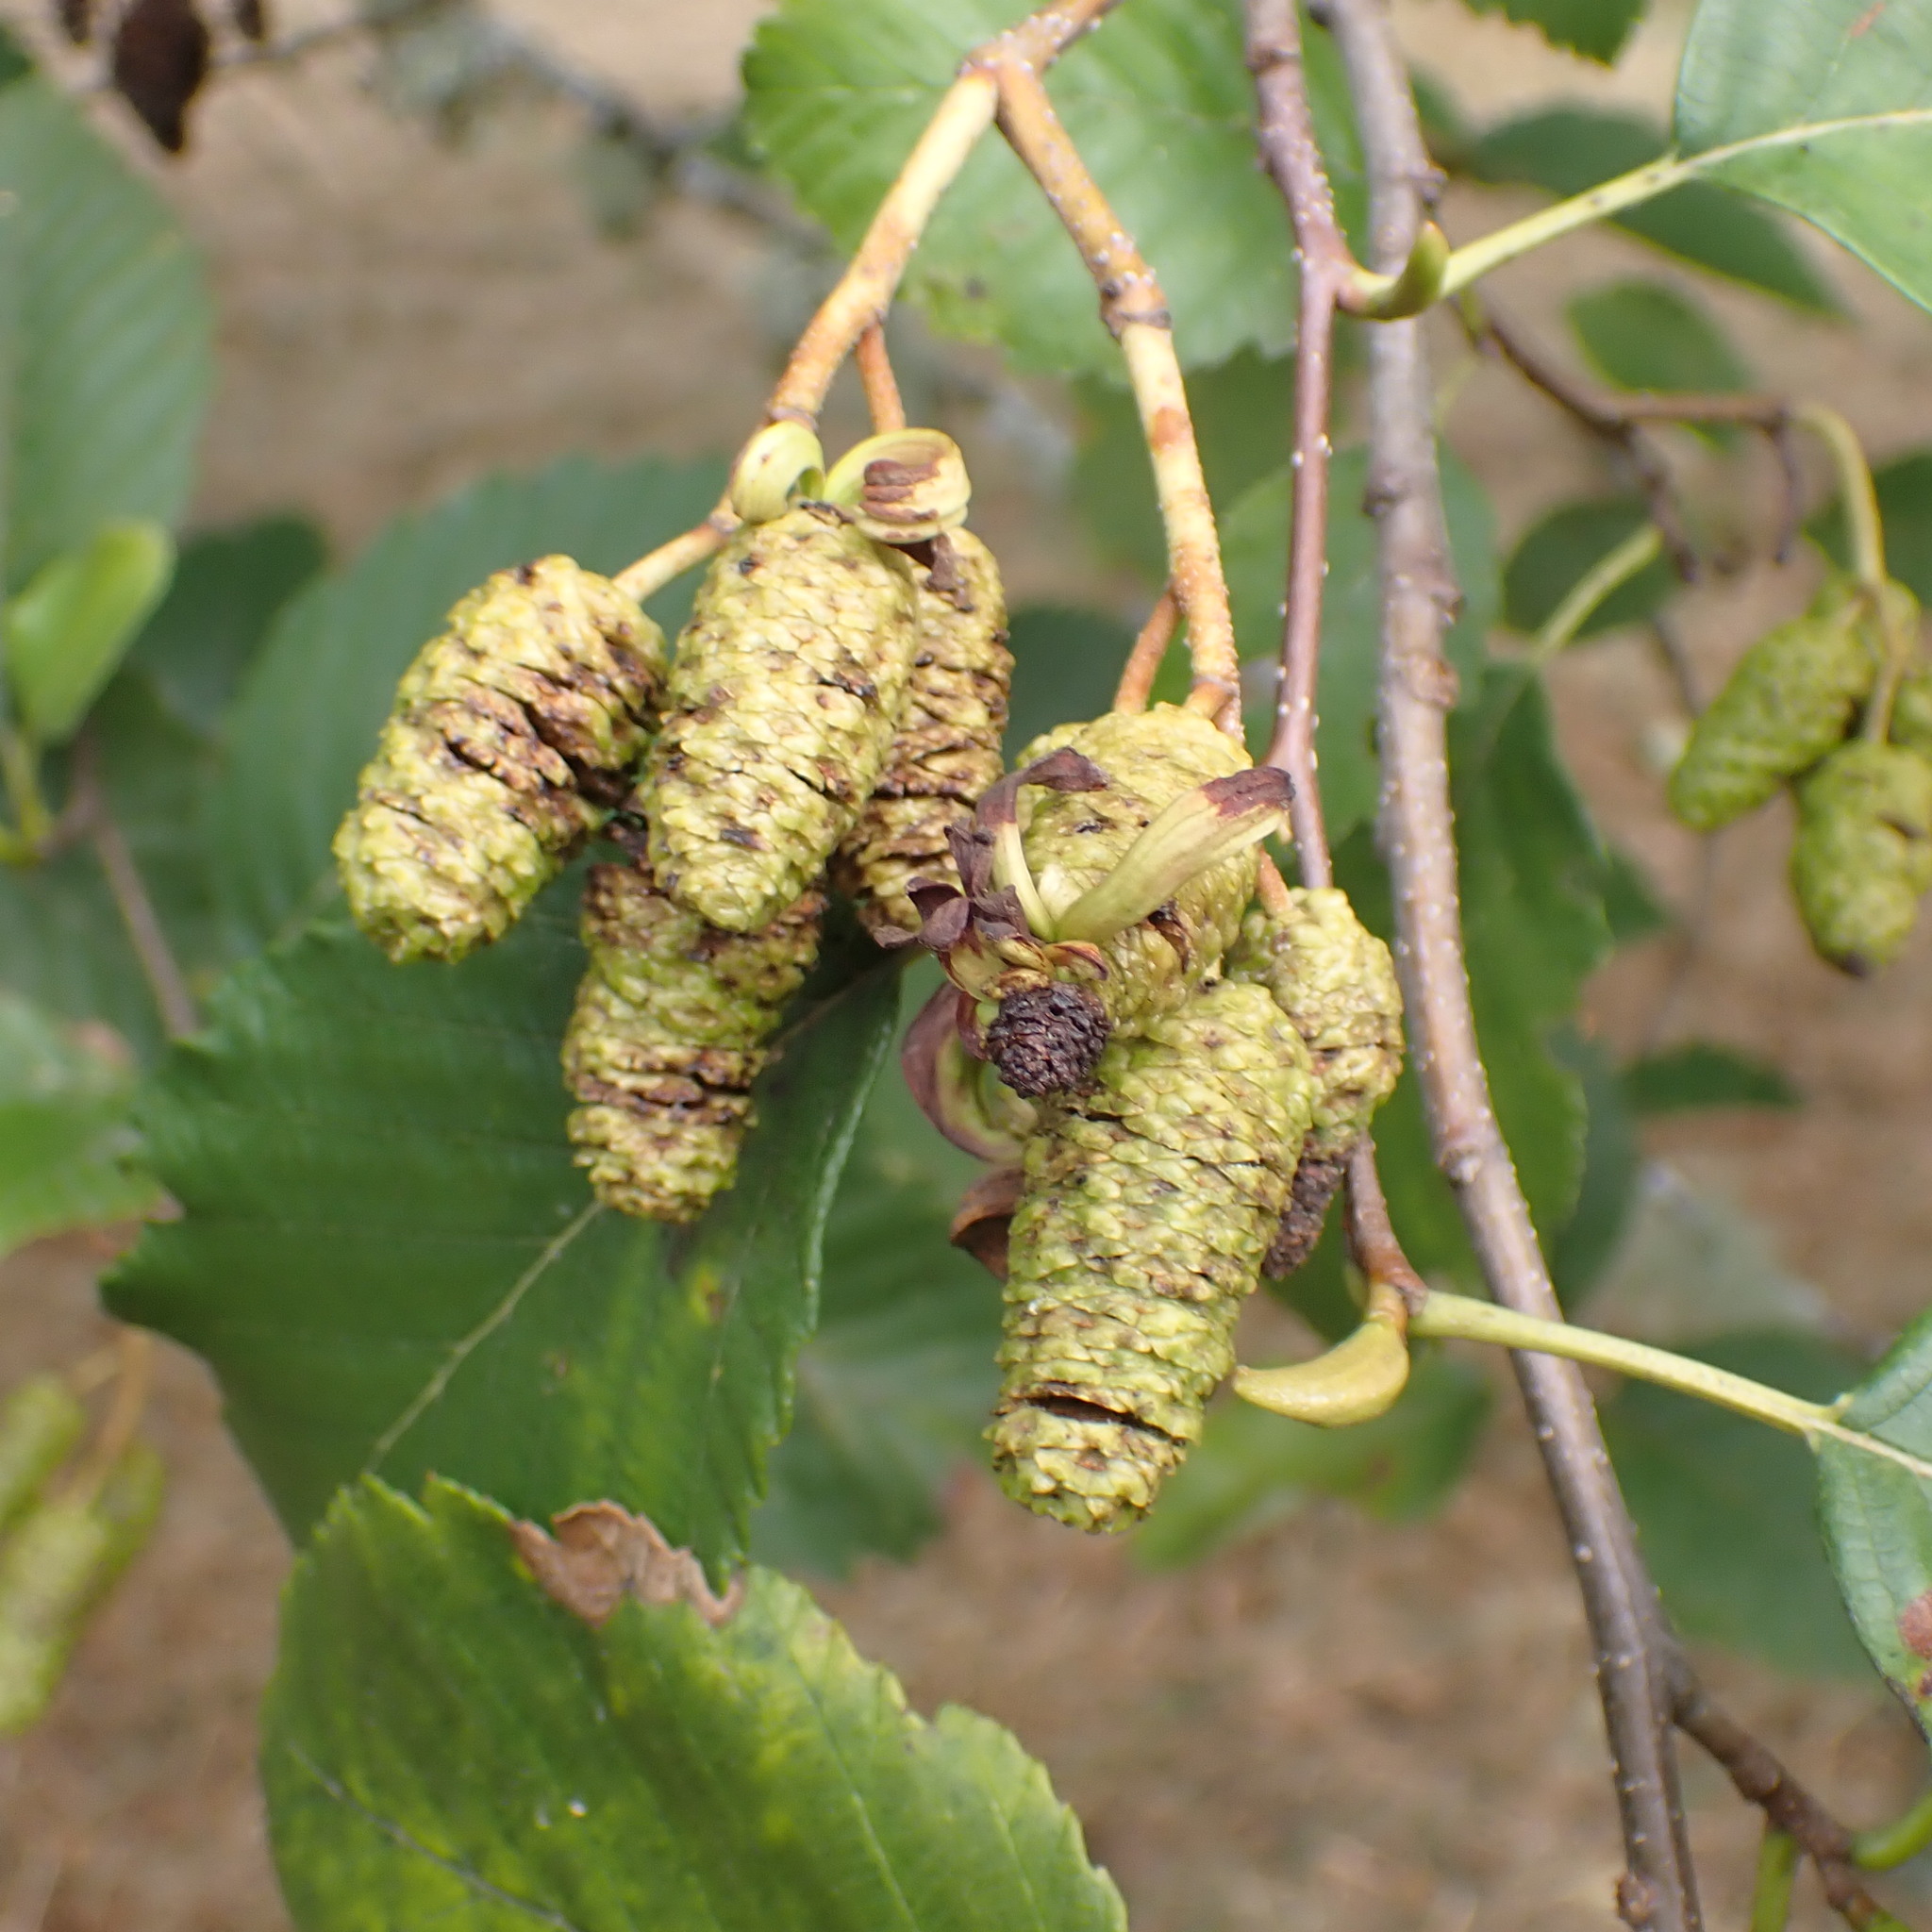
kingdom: Fungi
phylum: Ascomycota
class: Taphrinomycetes
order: Taphrinales
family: Taphrinaceae
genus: Taphrina
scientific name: Taphrina occidentalis
